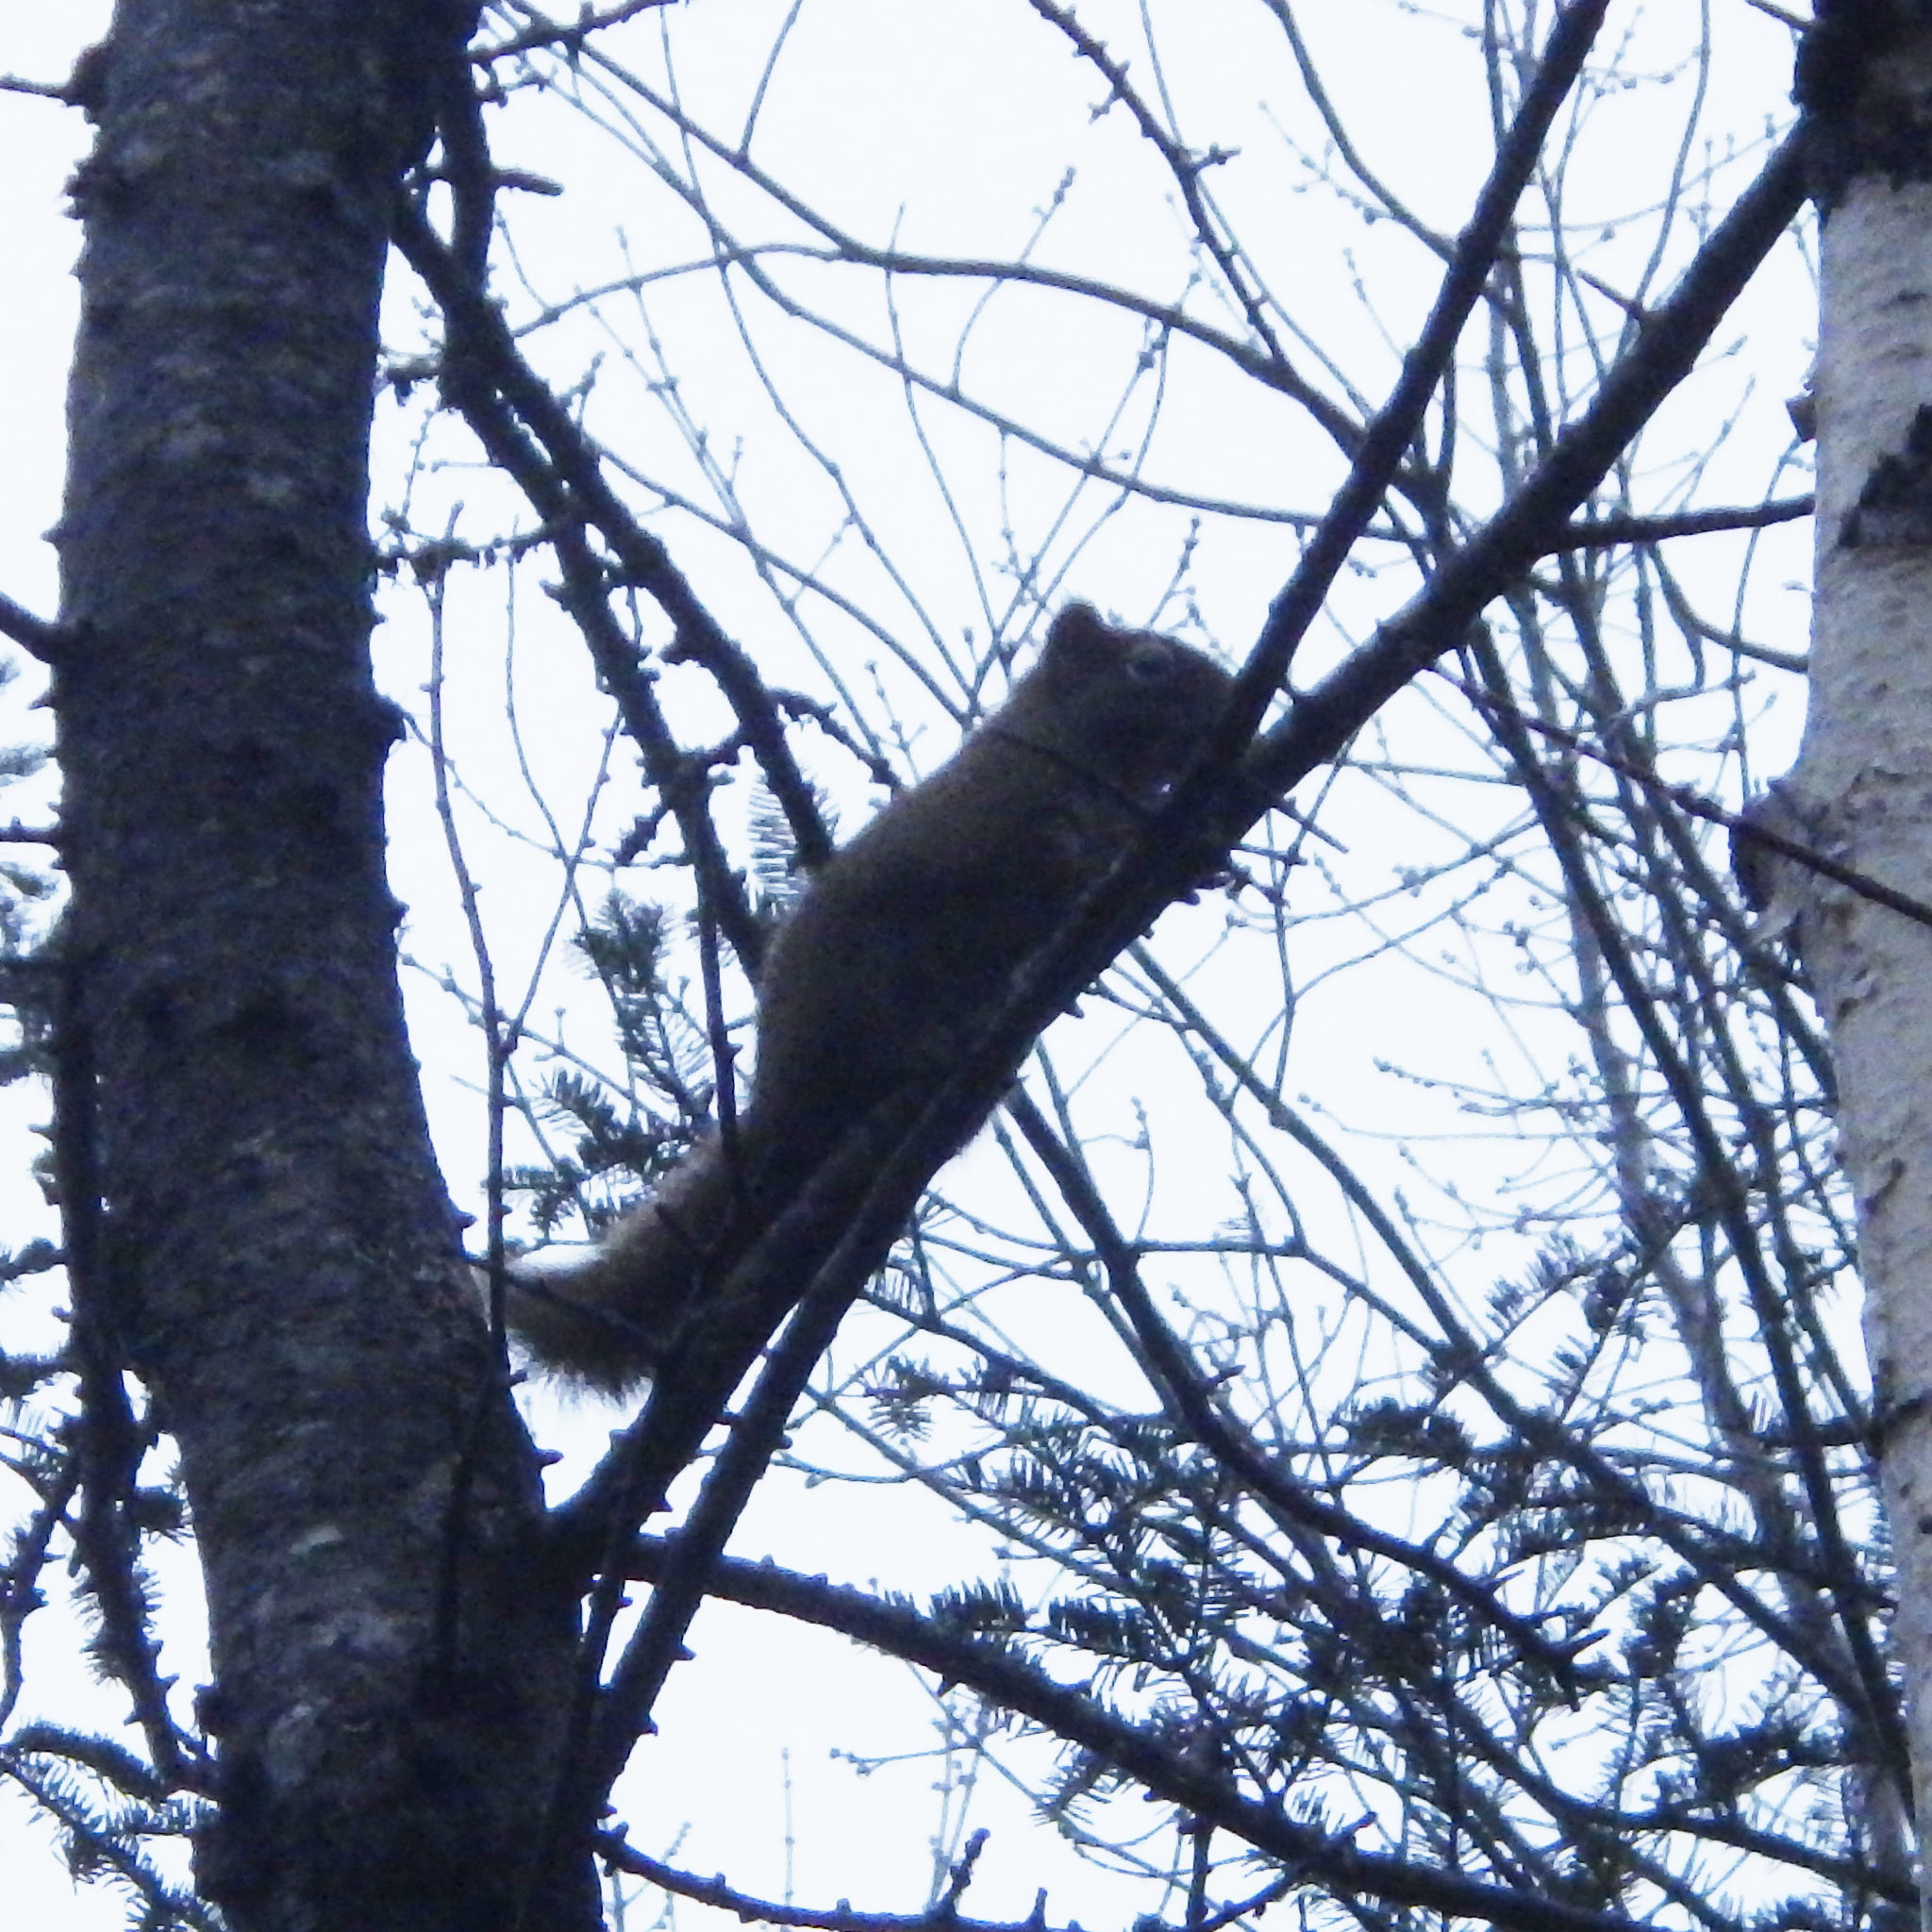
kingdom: Animalia
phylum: Chordata
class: Mammalia
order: Rodentia
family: Sciuridae
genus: Tamiasciurus
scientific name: Tamiasciurus hudsonicus
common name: Red squirrel
